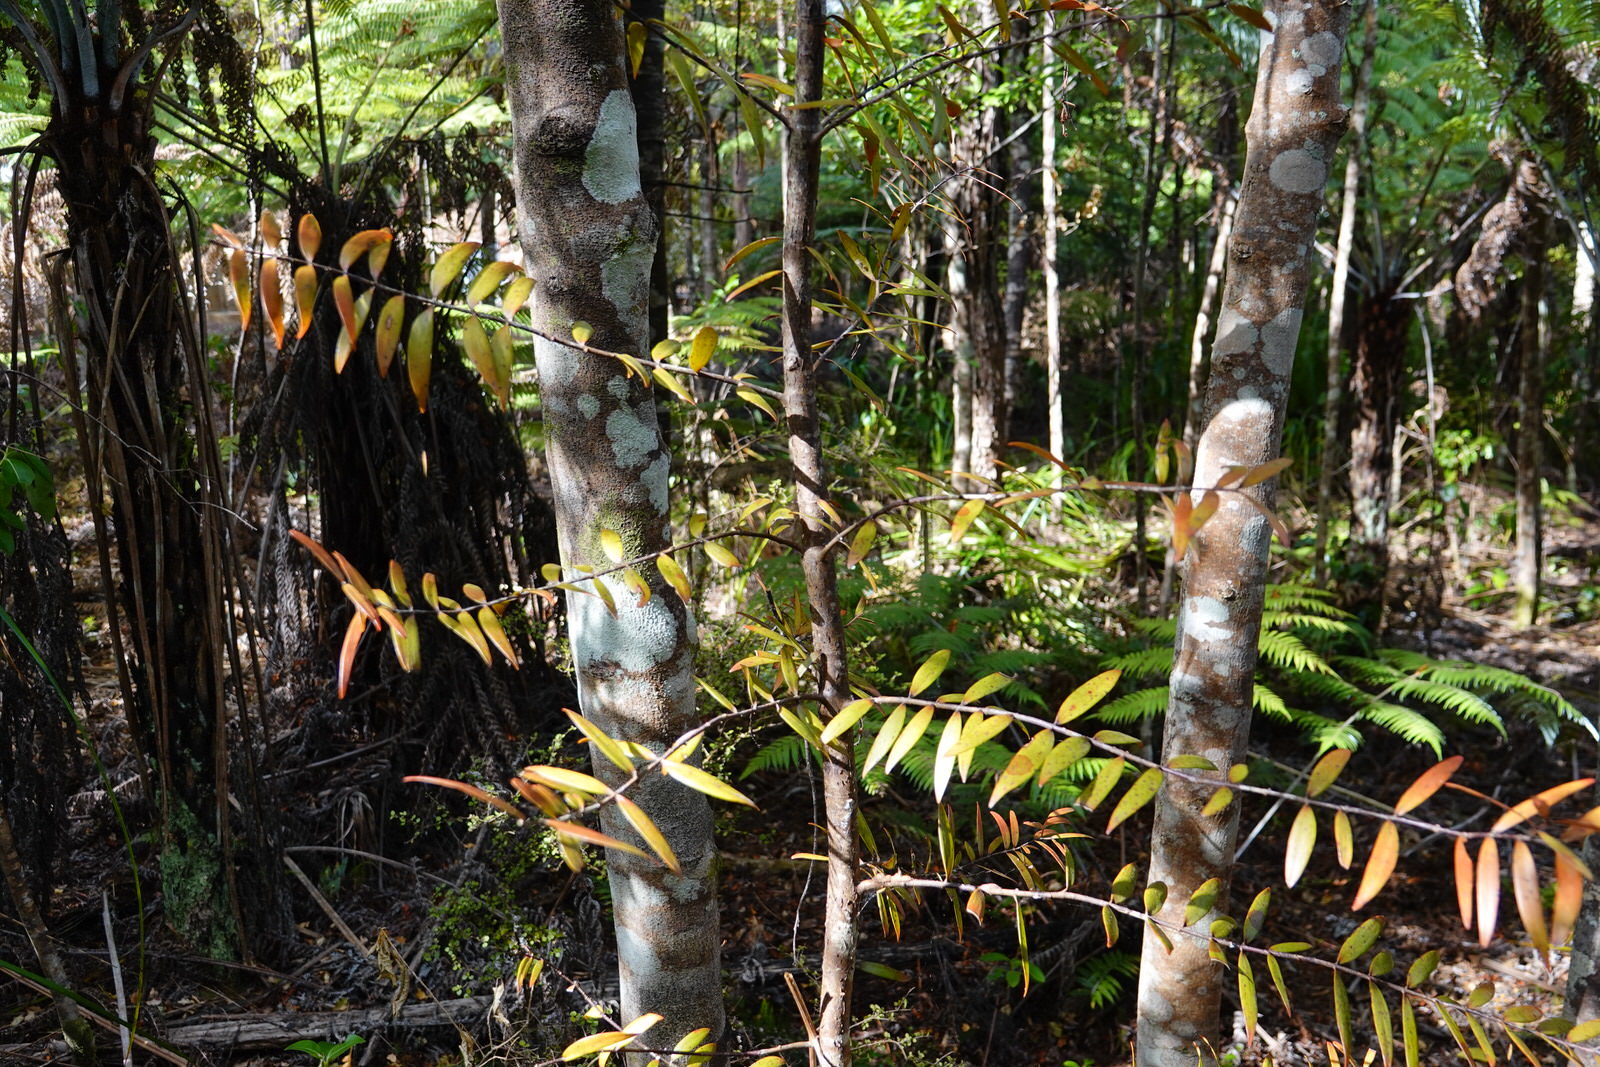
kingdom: Plantae
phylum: Tracheophyta
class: Pinopsida
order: Pinales
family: Araucariaceae
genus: Agathis
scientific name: Agathis australis
